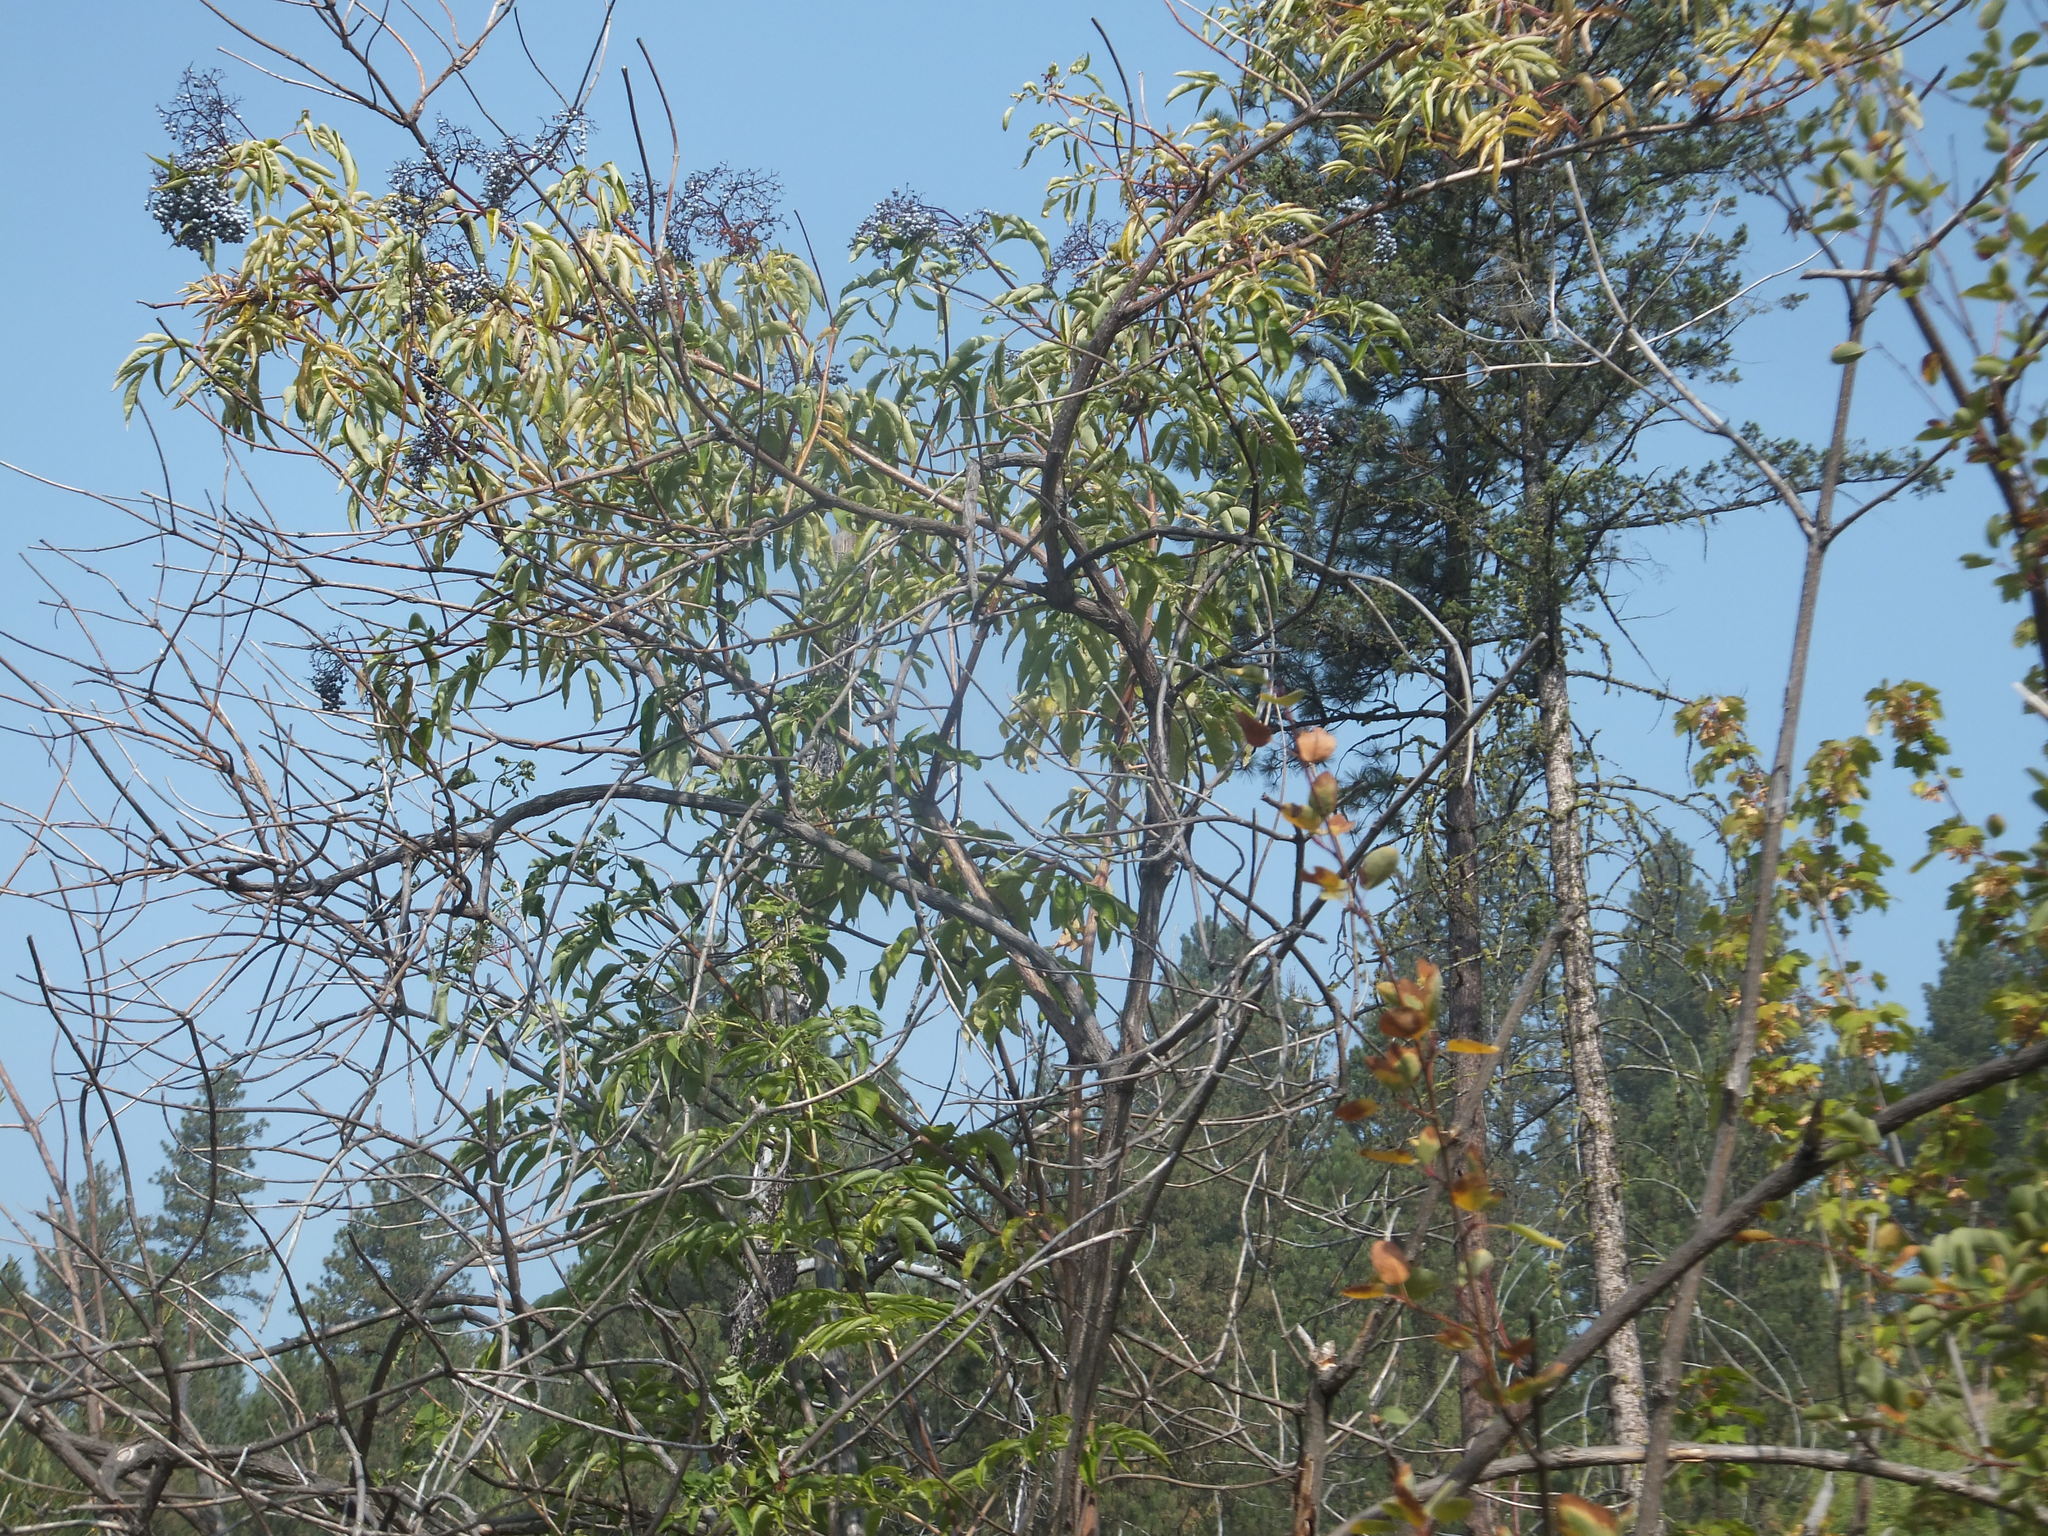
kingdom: Plantae
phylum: Tracheophyta
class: Magnoliopsida
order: Dipsacales
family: Viburnaceae
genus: Sambucus
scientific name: Sambucus cerulea
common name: Blue elder
